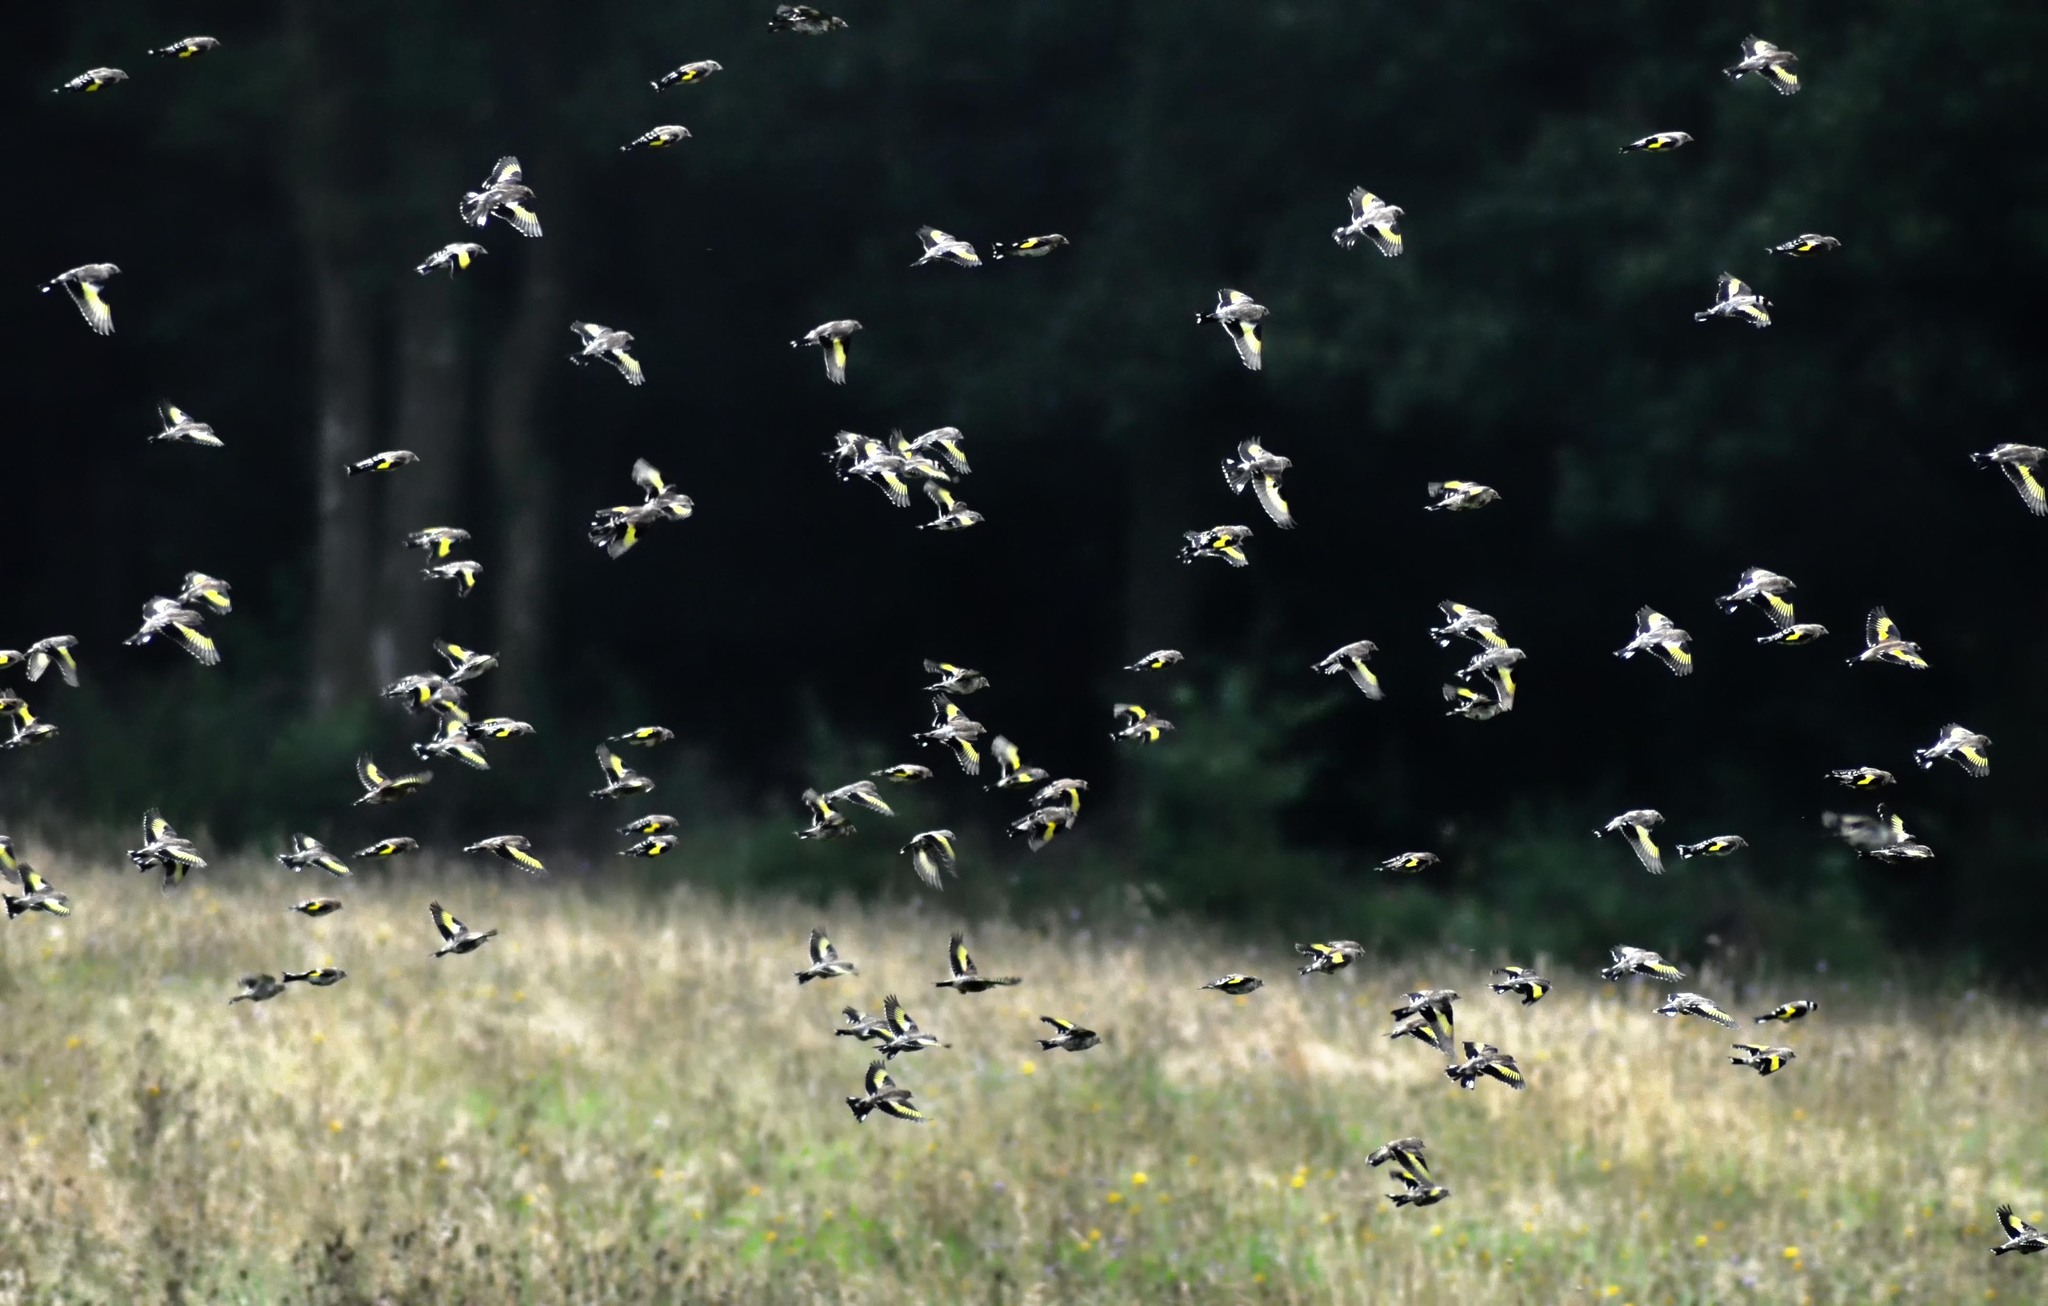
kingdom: Animalia
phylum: Chordata
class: Aves
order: Passeriformes
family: Fringillidae
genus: Carduelis
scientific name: Carduelis carduelis
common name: European goldfinch
